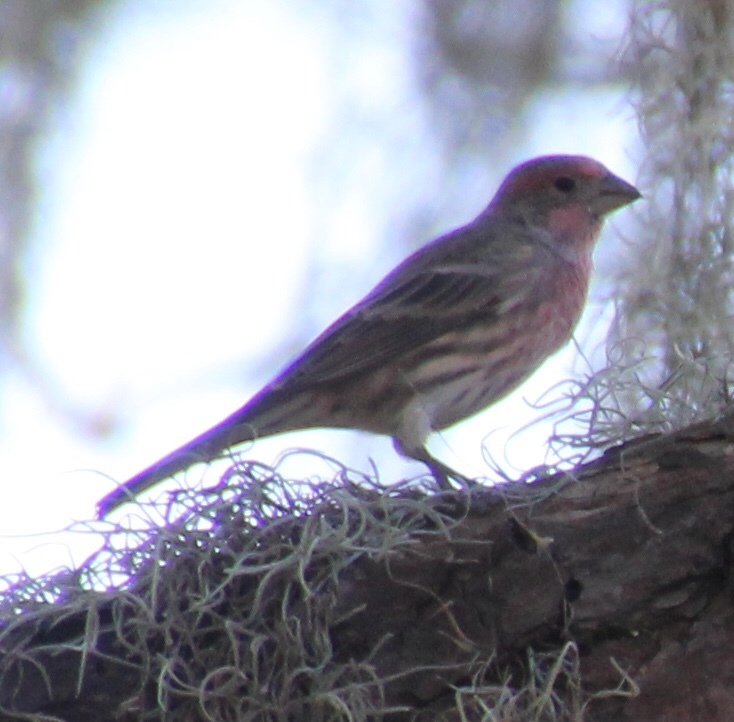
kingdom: Animalia
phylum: Chordata
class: Aves
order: Passeriformes
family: Fringillidae
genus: Haemorhous
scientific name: Haemorhous mexicanus
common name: House finch
